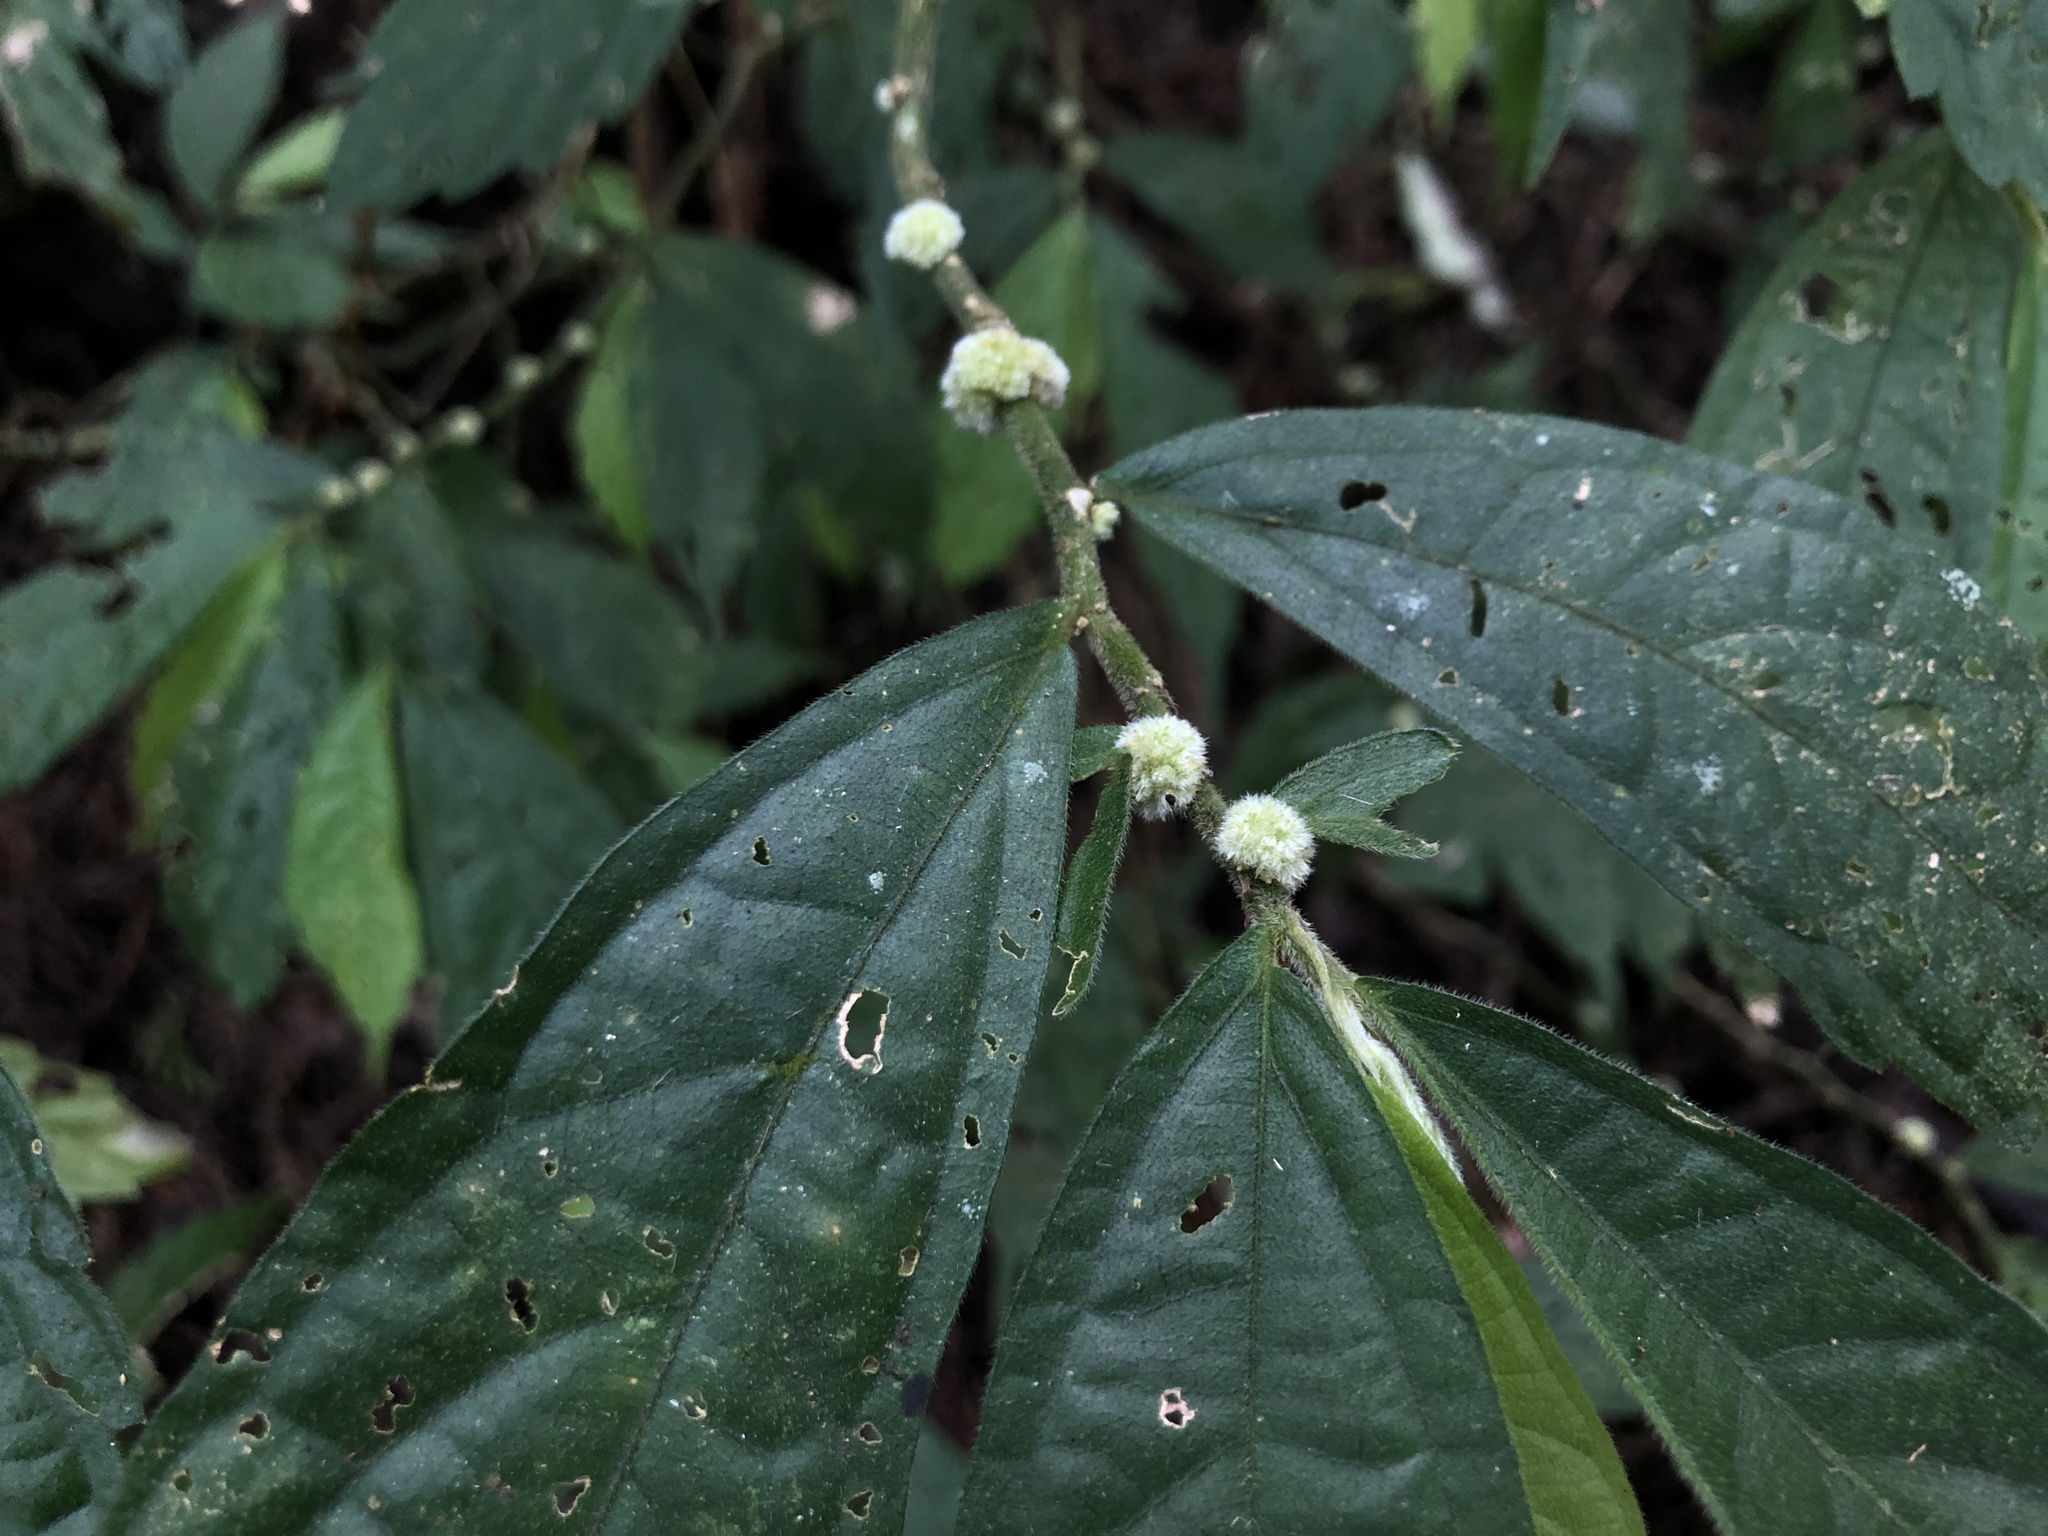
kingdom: Plantae
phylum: Tracheophyta
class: Magnoliopsida
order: Rosales
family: Urticaceae
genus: Elatostema
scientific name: Elatostema lineolatum
